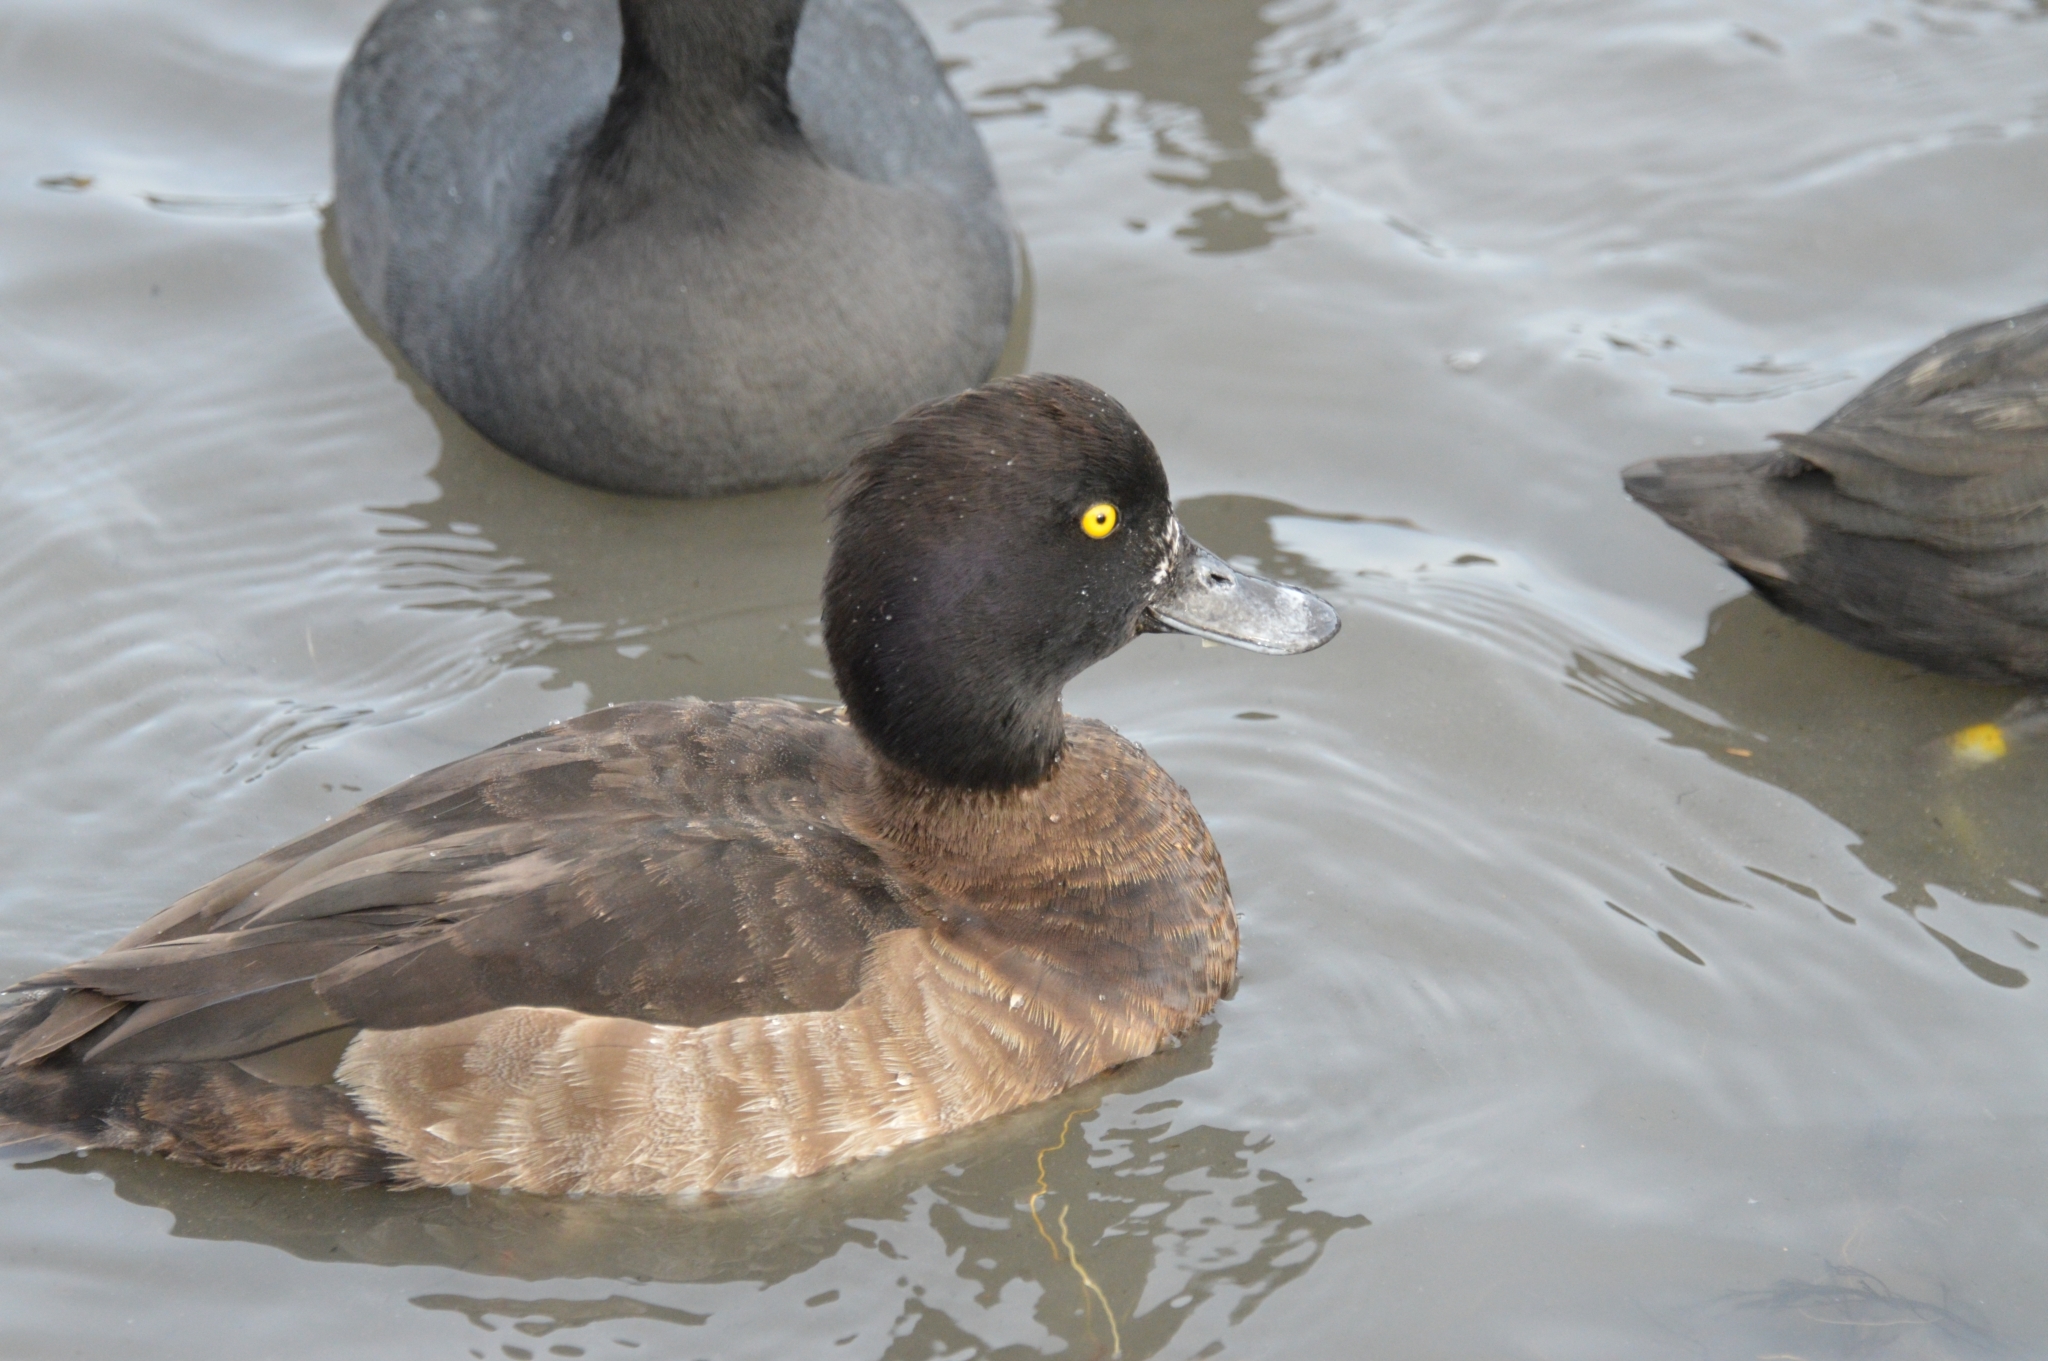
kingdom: Animalia
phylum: Chordata
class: Aves
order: Anseriformes
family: Anatidae
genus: Aythya
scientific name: Aythya fuligula
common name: Tufted duck
